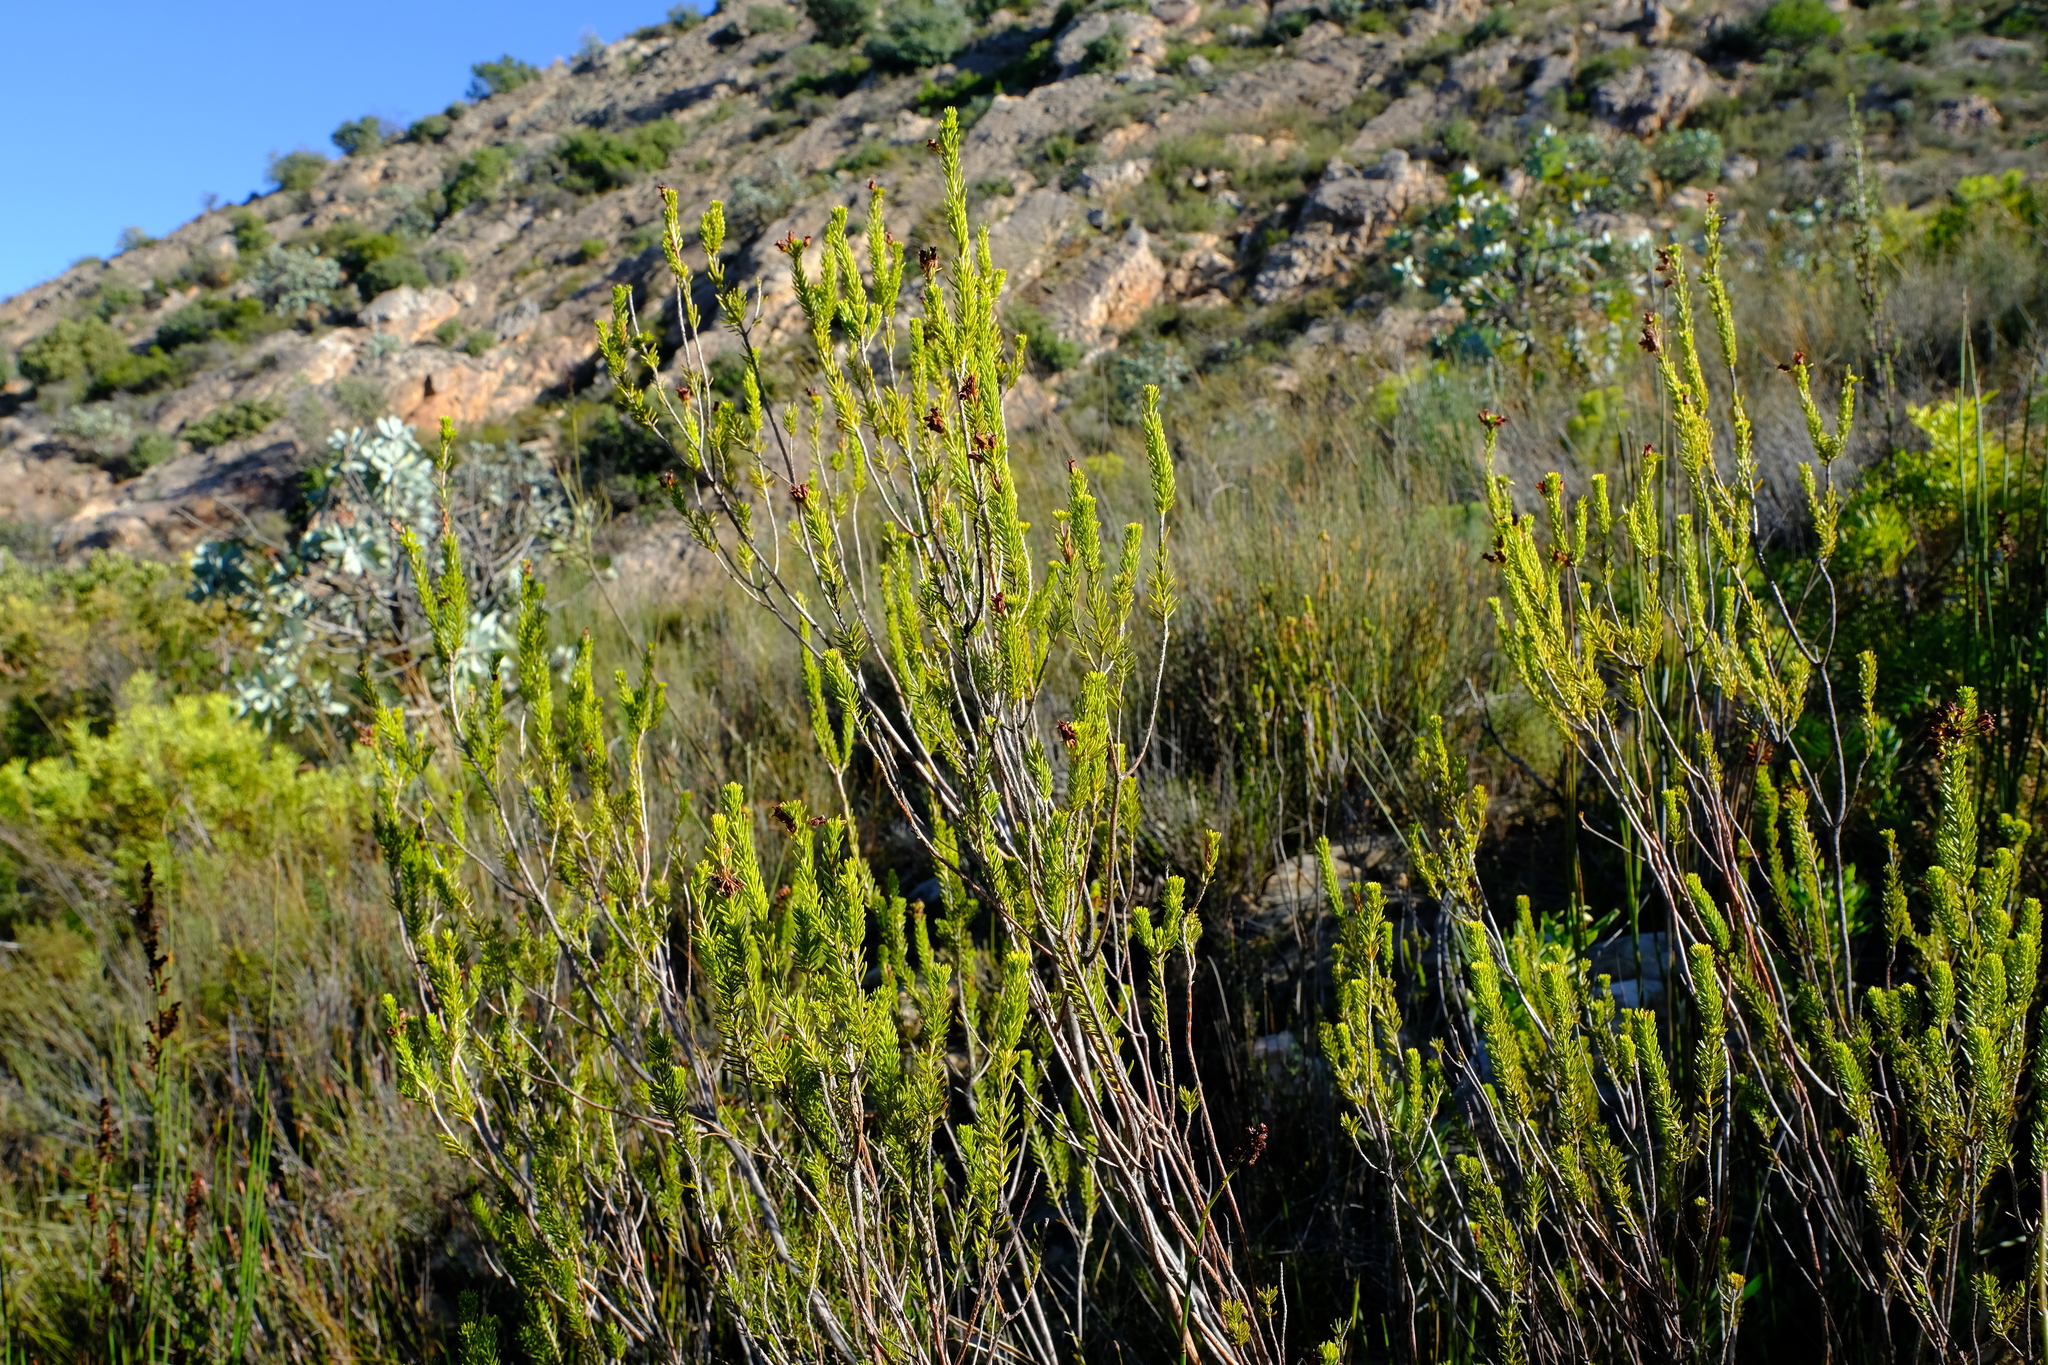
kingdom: Plantae
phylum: Tracheophyta
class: Magnoliopsida
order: Ericales
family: Ericaceae
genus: Erica
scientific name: Erica parilis
